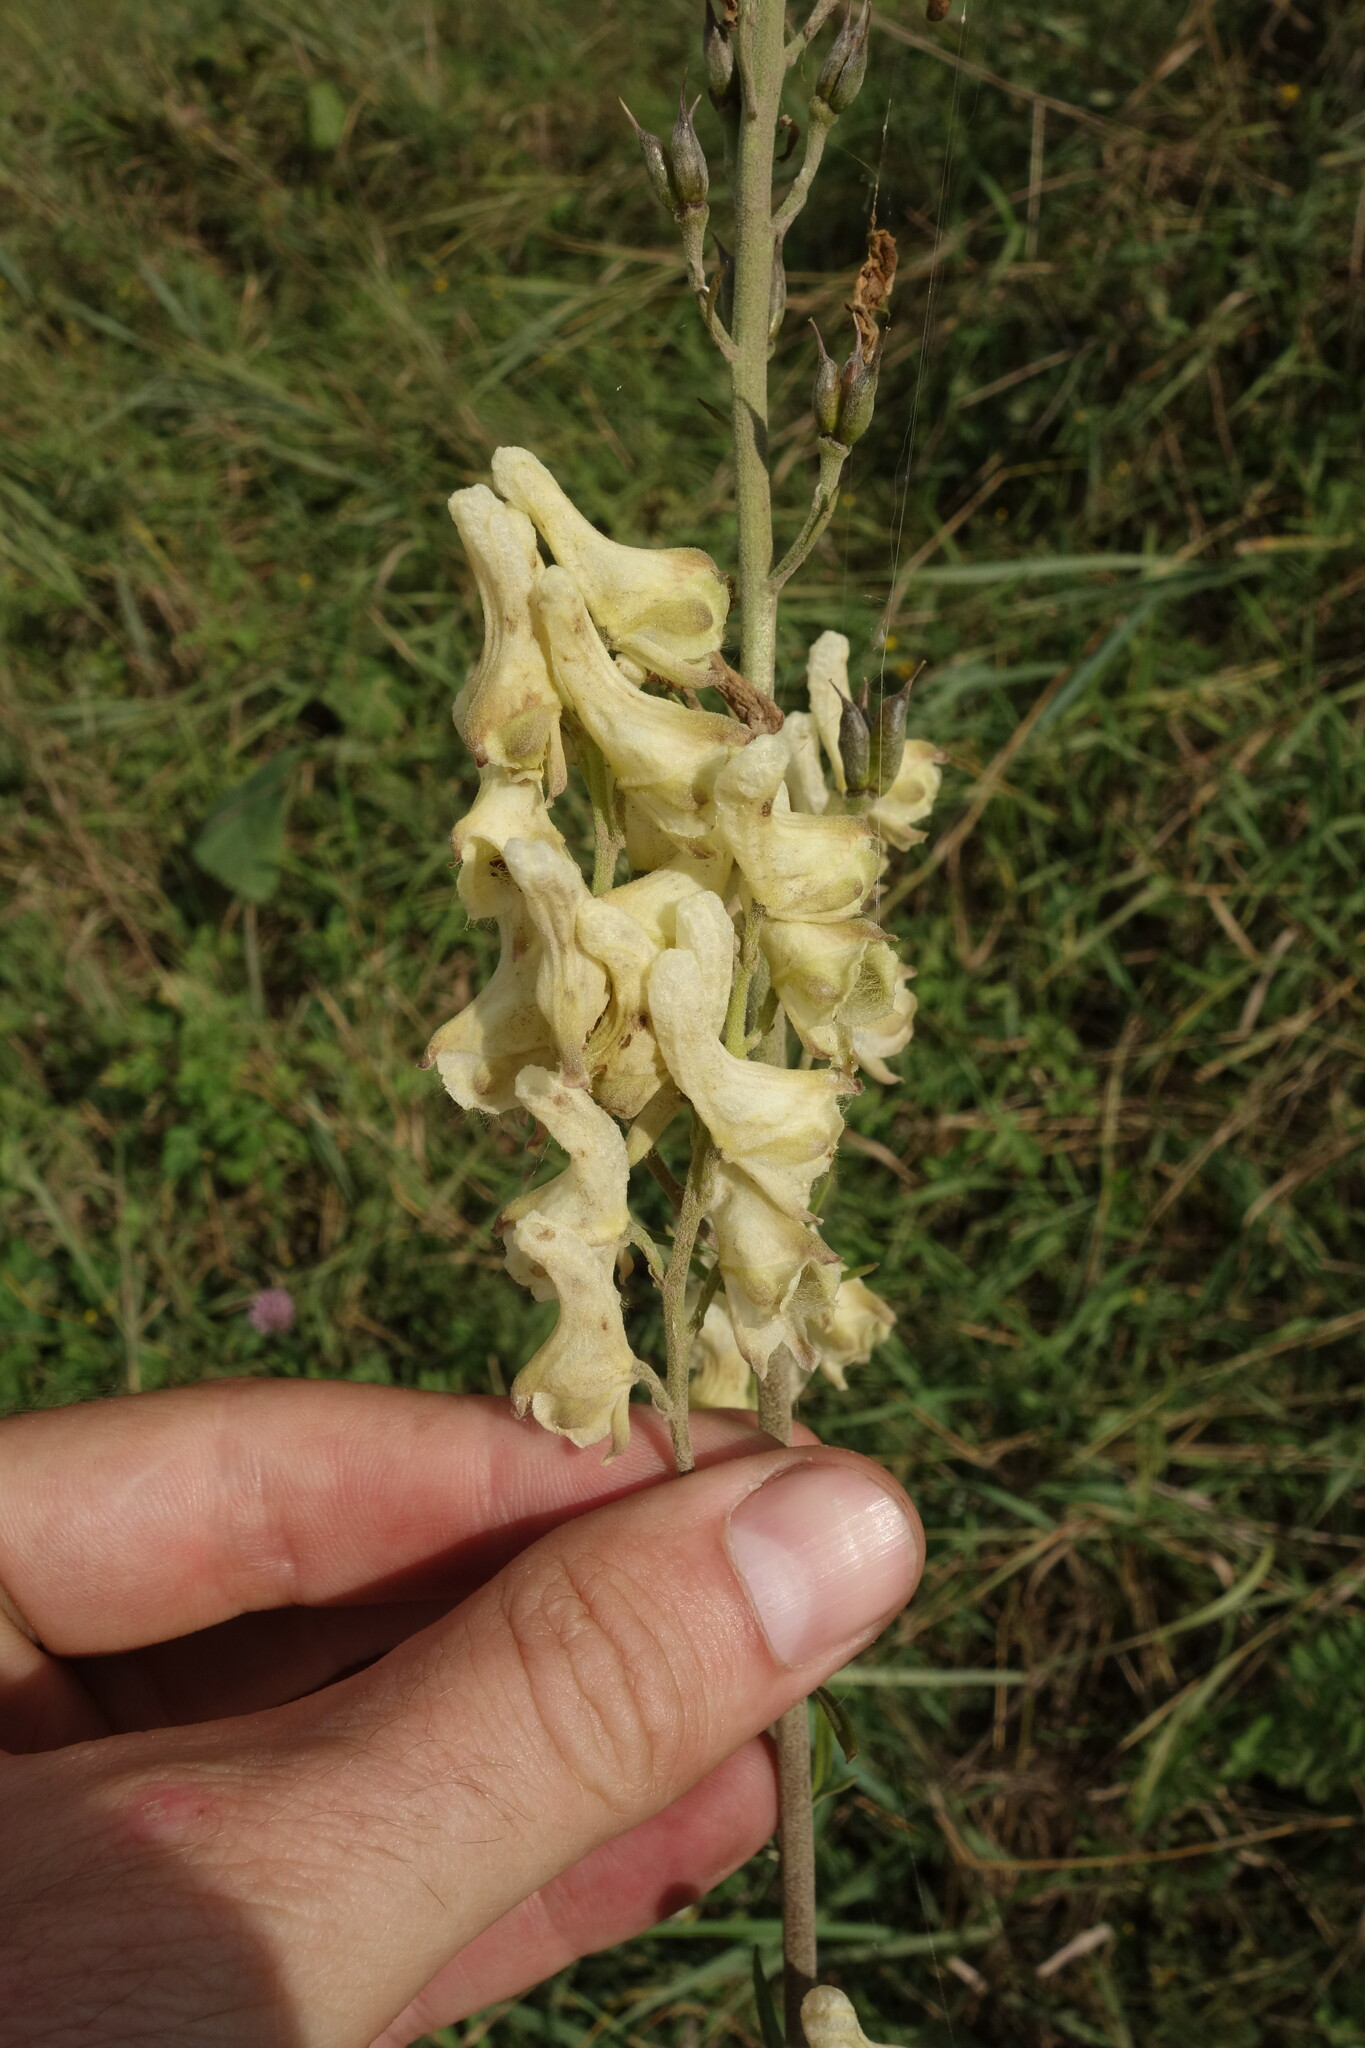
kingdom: Plantae
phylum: Tracheophyta
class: Magnoliopsida
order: Ranunculales
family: Ranunculaceae
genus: Aconitum
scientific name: Aconitum barbatum
